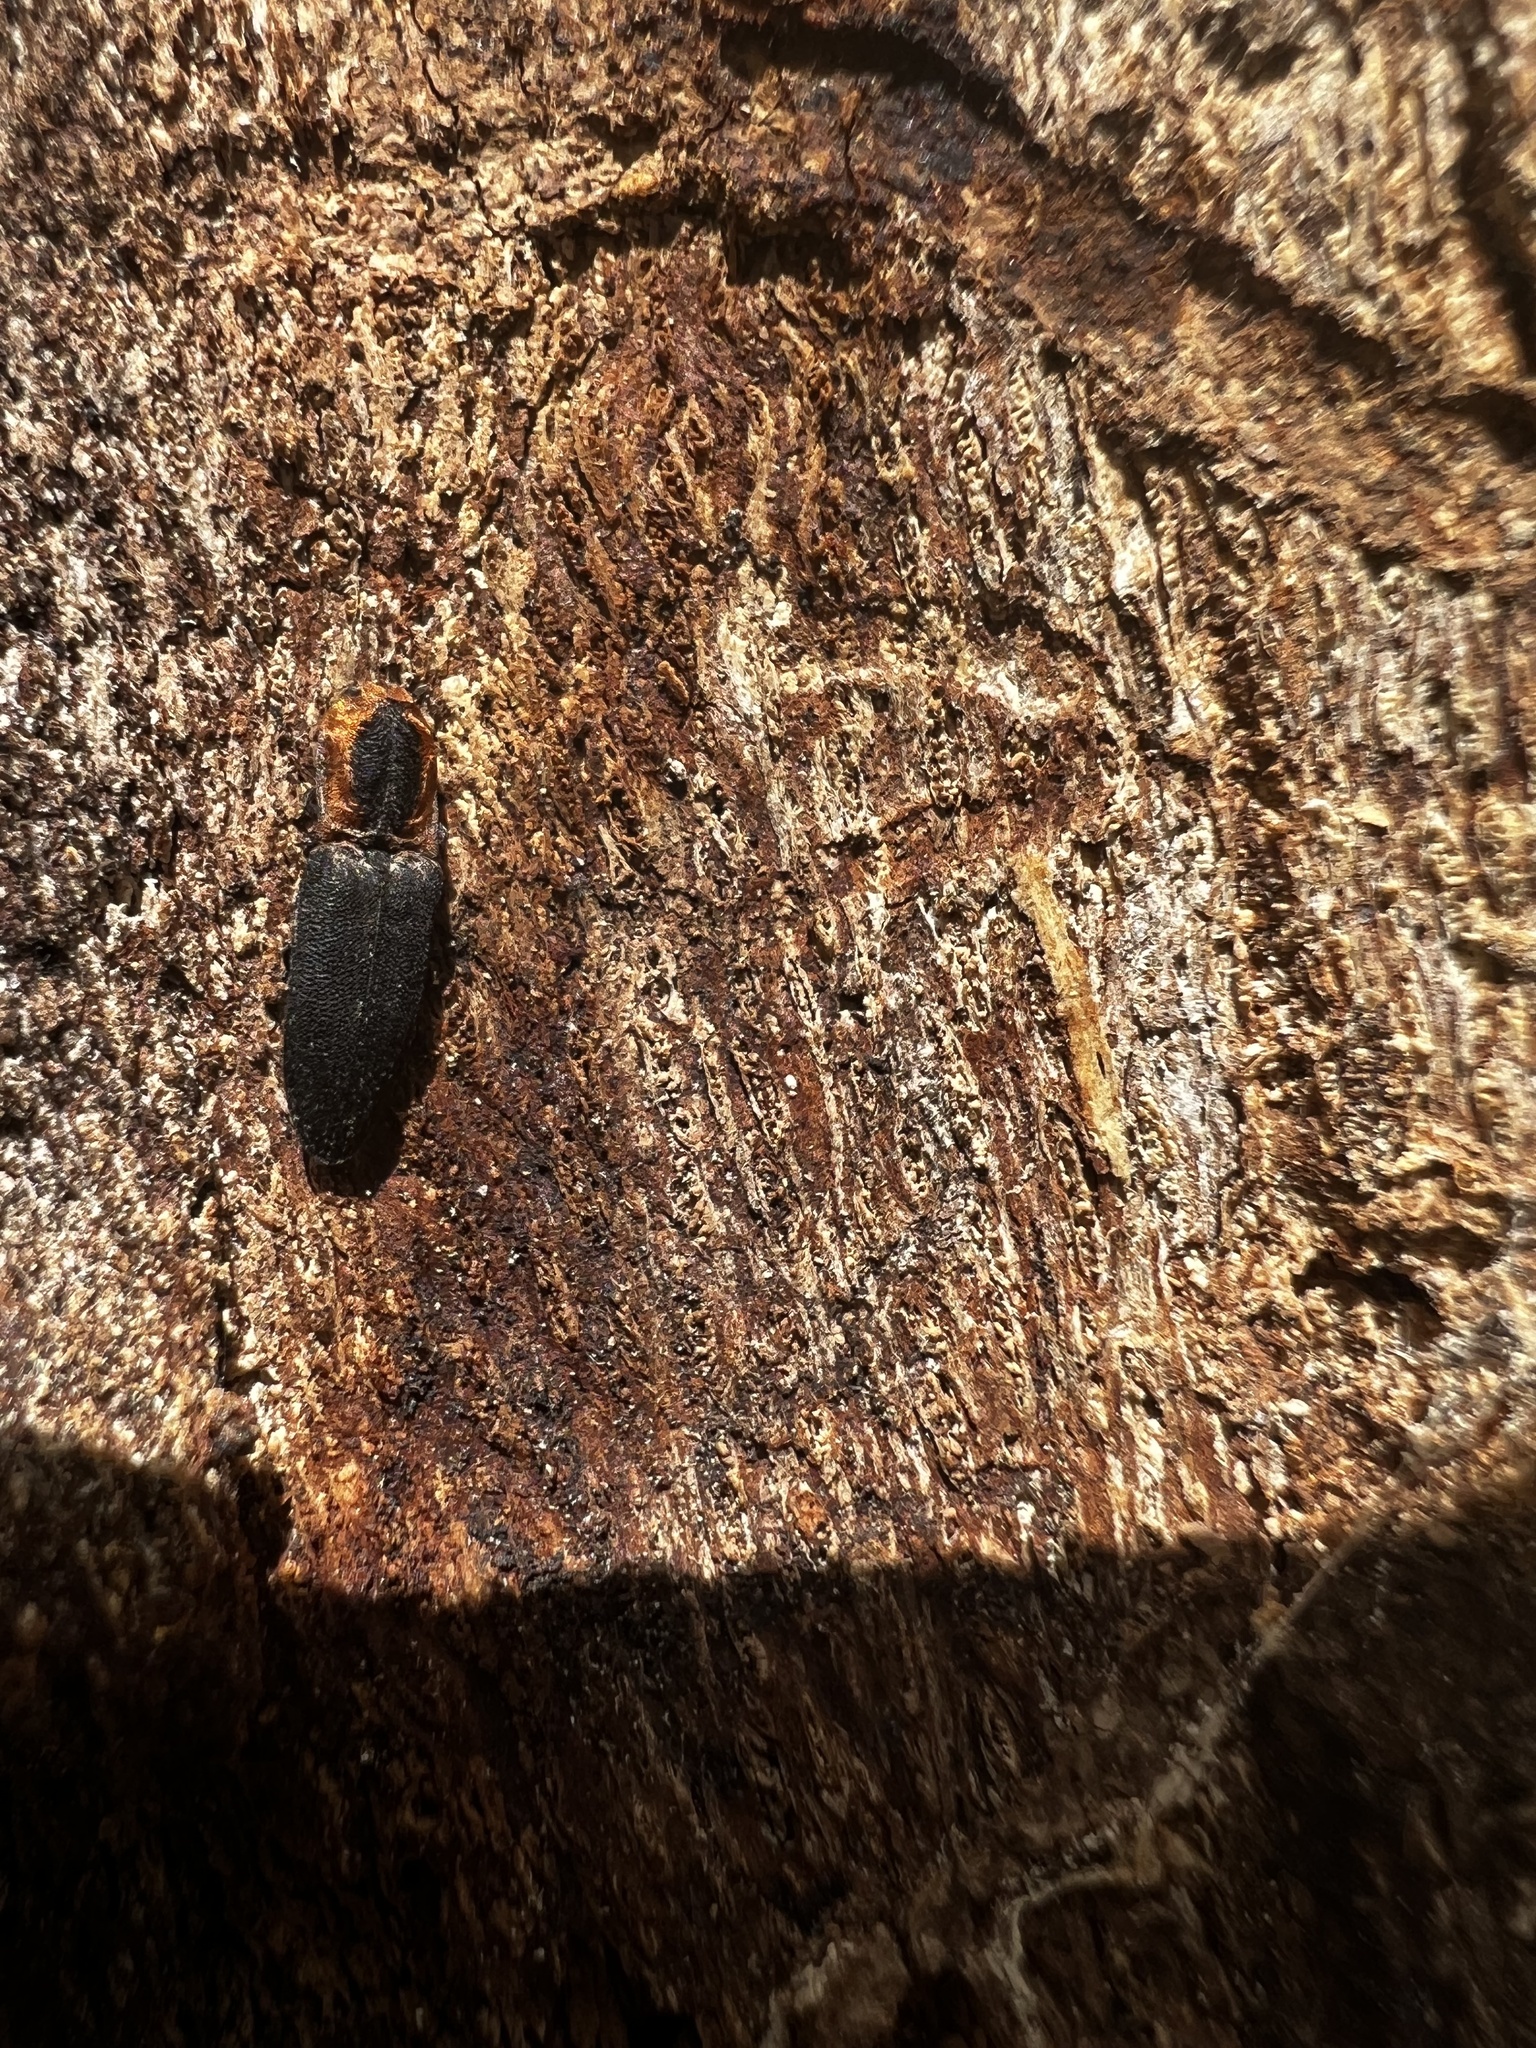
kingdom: Animalia
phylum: Arthropoda
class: Insecta
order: Coleoptera
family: Elateridae
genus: Lacon
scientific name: Lacon discoideus
